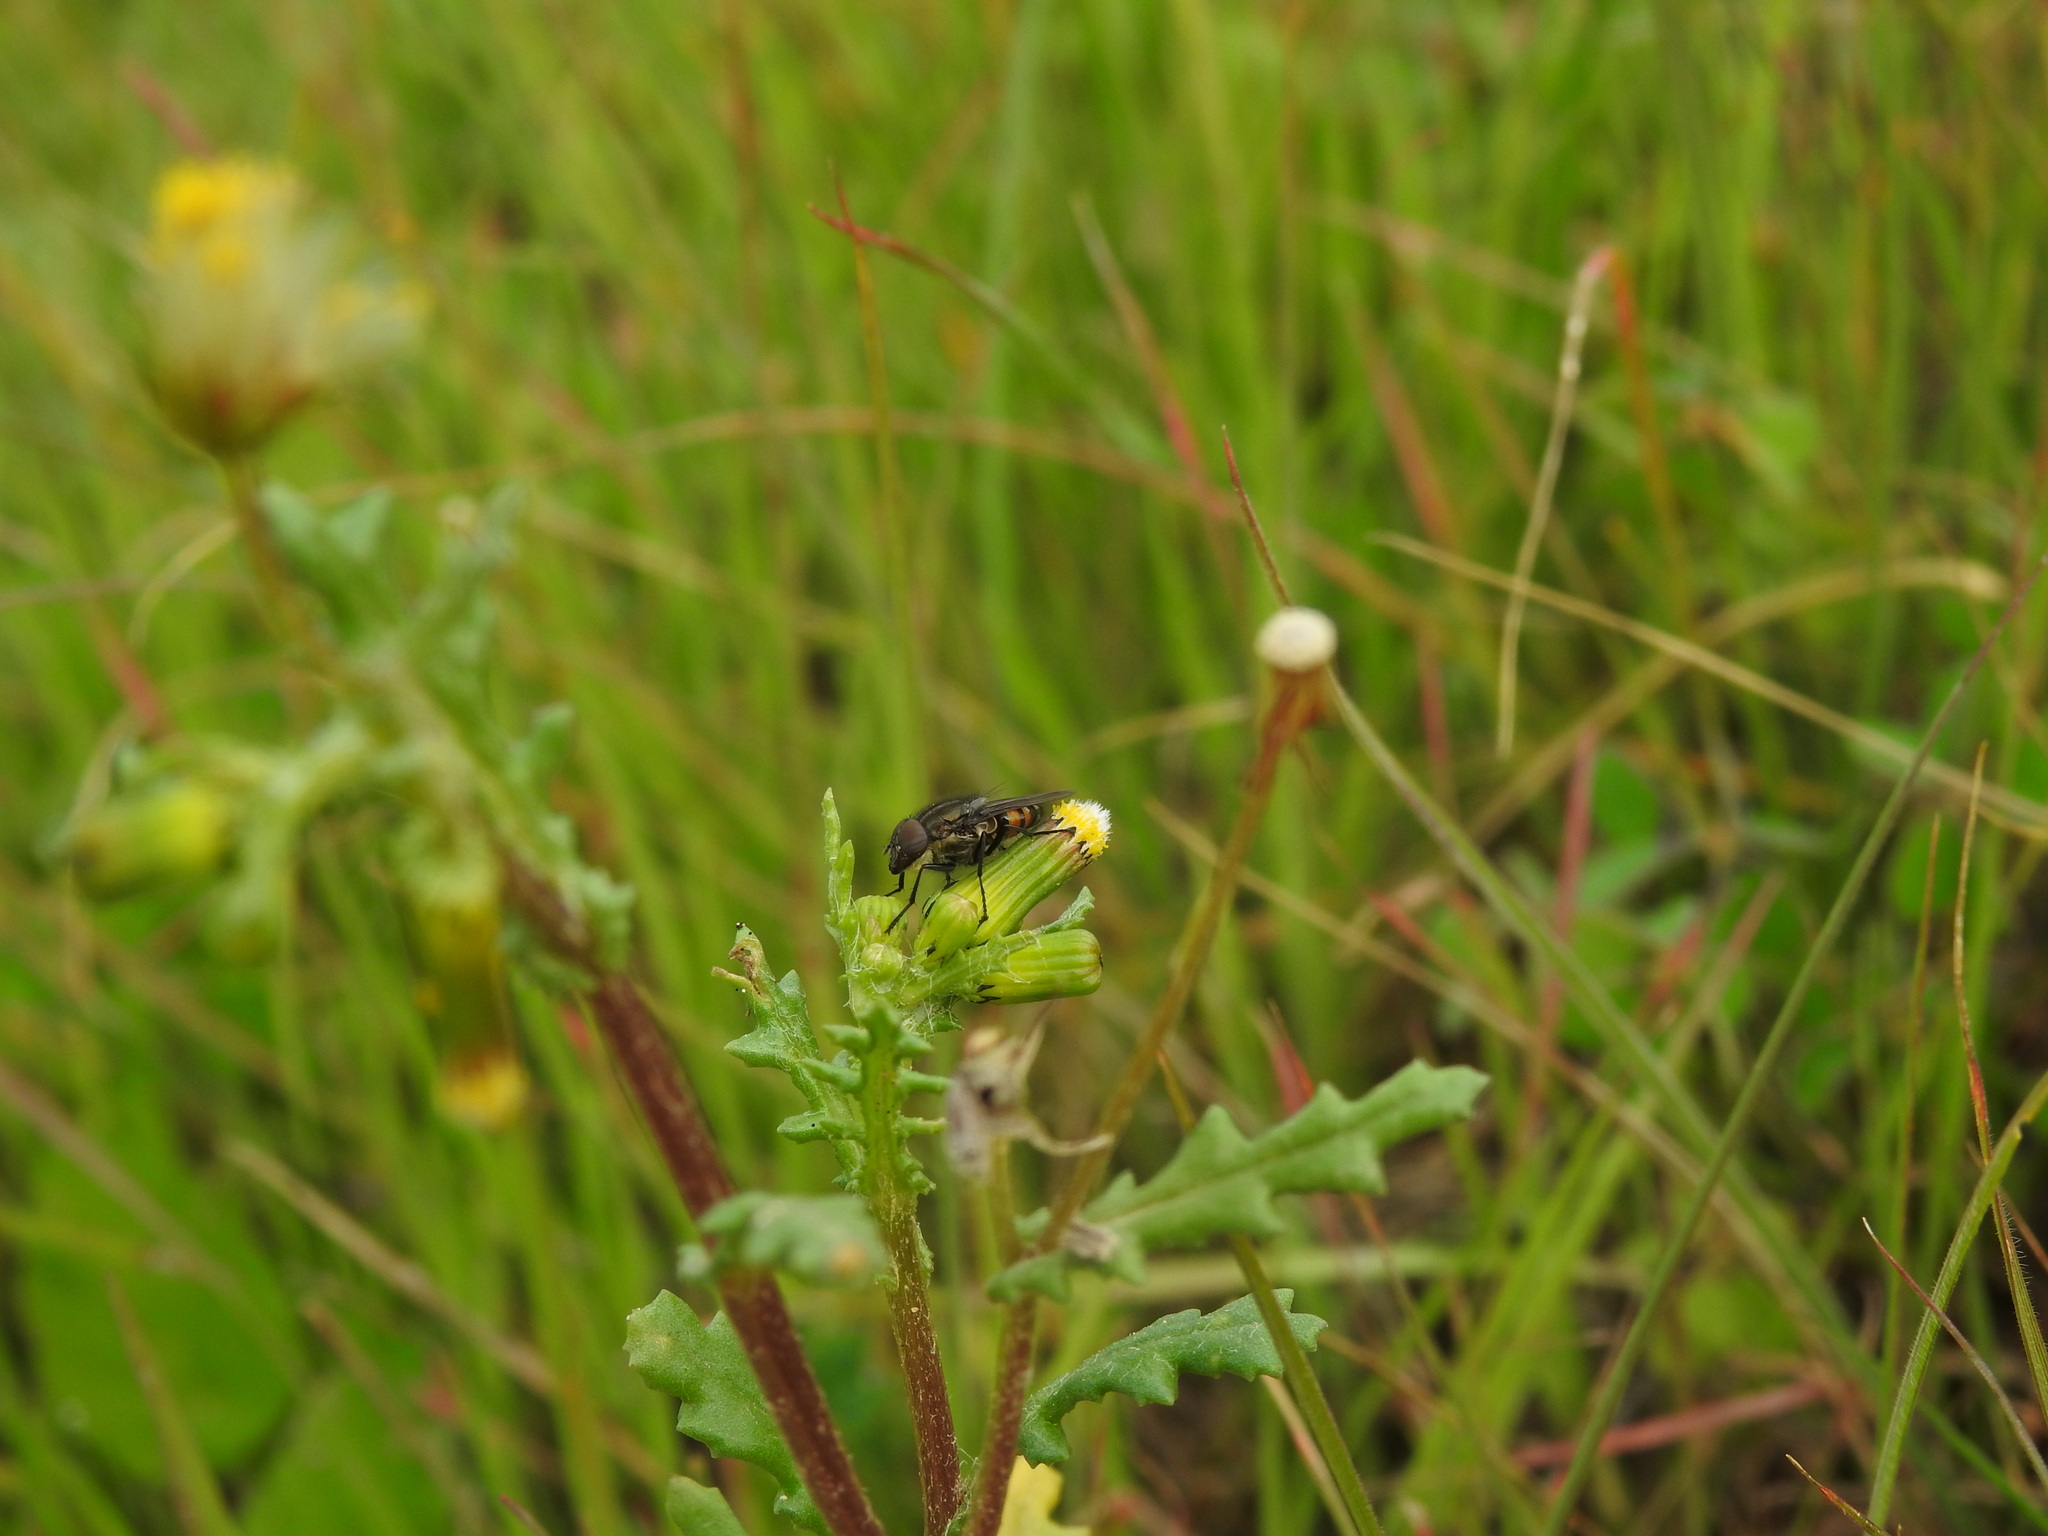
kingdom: Plantae
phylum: Tracheophyta
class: Magnoliopsida
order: Asterales
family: Asteraceae
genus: Senecio
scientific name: Senecio vulgaris
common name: Old-man-in-the-spring
